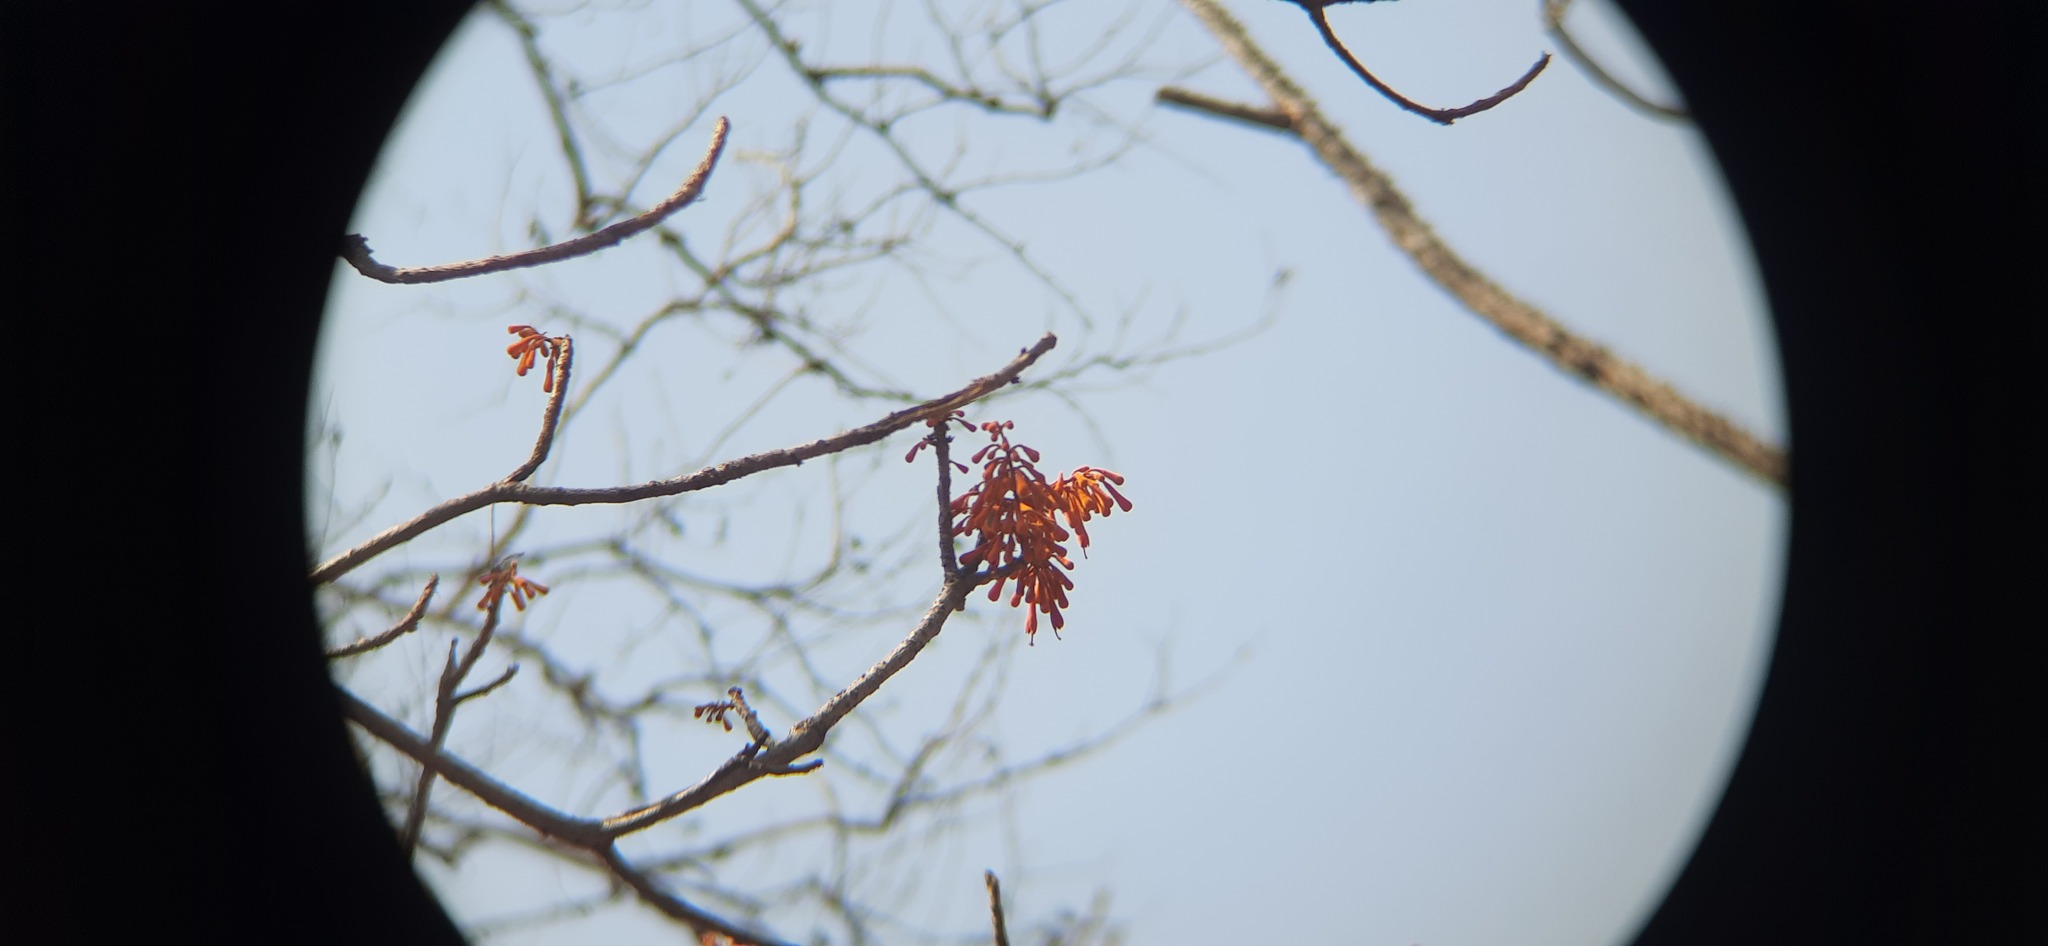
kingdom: Plantae
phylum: Tracheophyta
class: Magnoliopsida
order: Malvales
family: Malvaceae
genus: Firmiana
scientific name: Firmiana colorata
